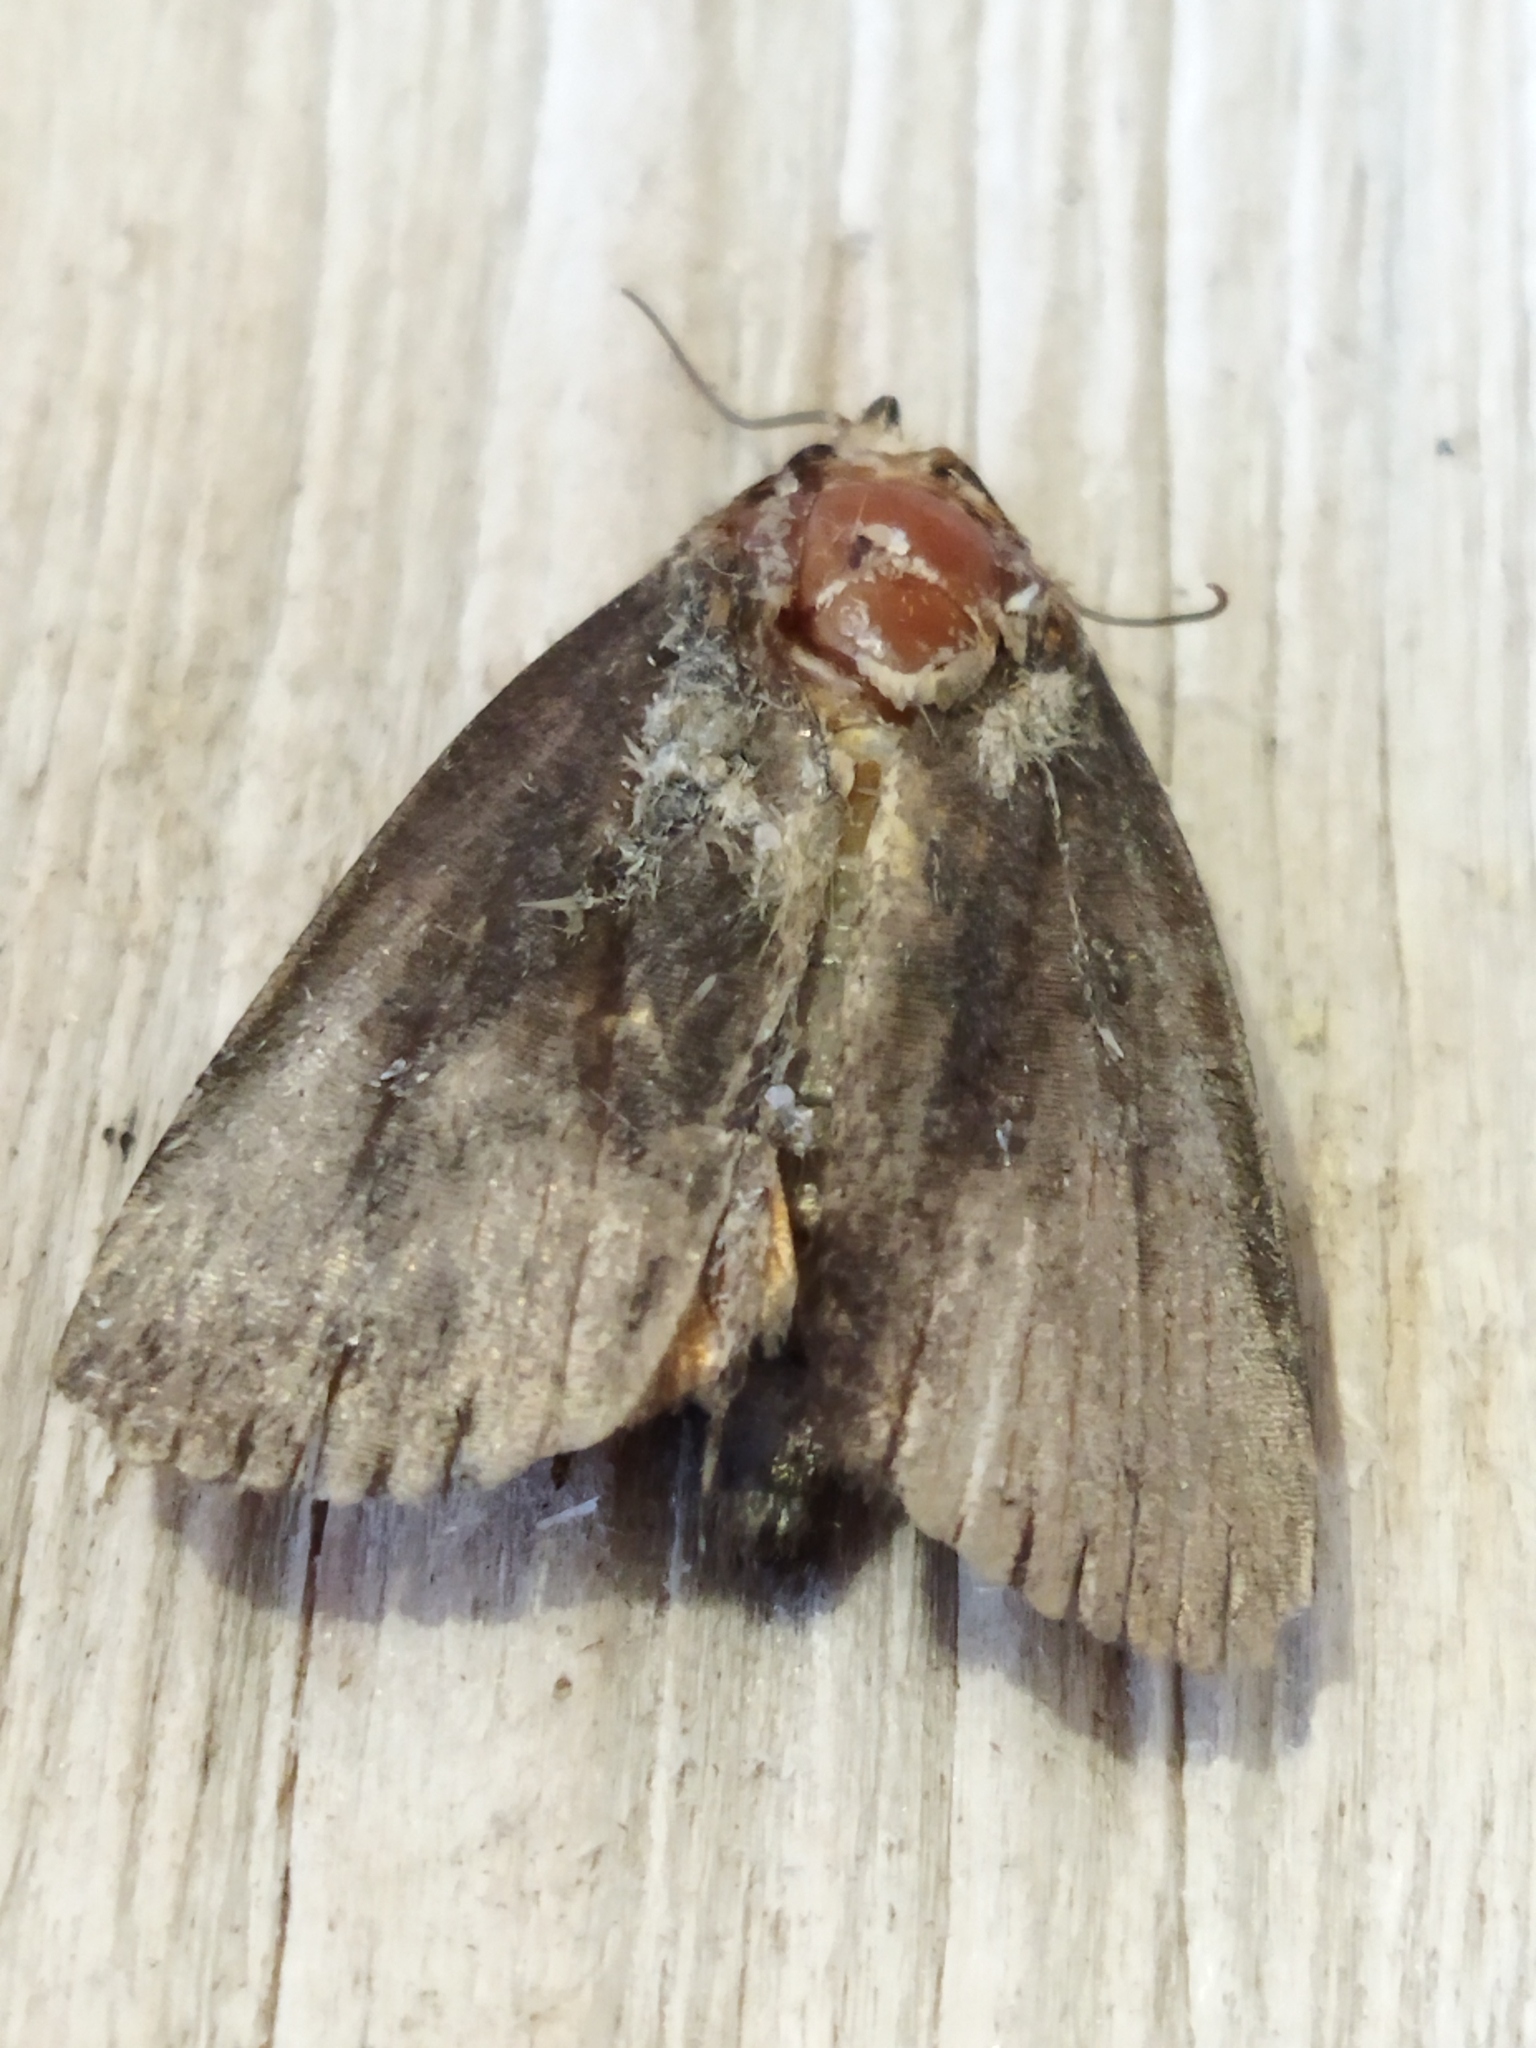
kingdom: Animalia
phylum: Arthropoda
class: Insecta
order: Lepidoptera
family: Noctuidae
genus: Amphipyra
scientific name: Amphipyra livida
